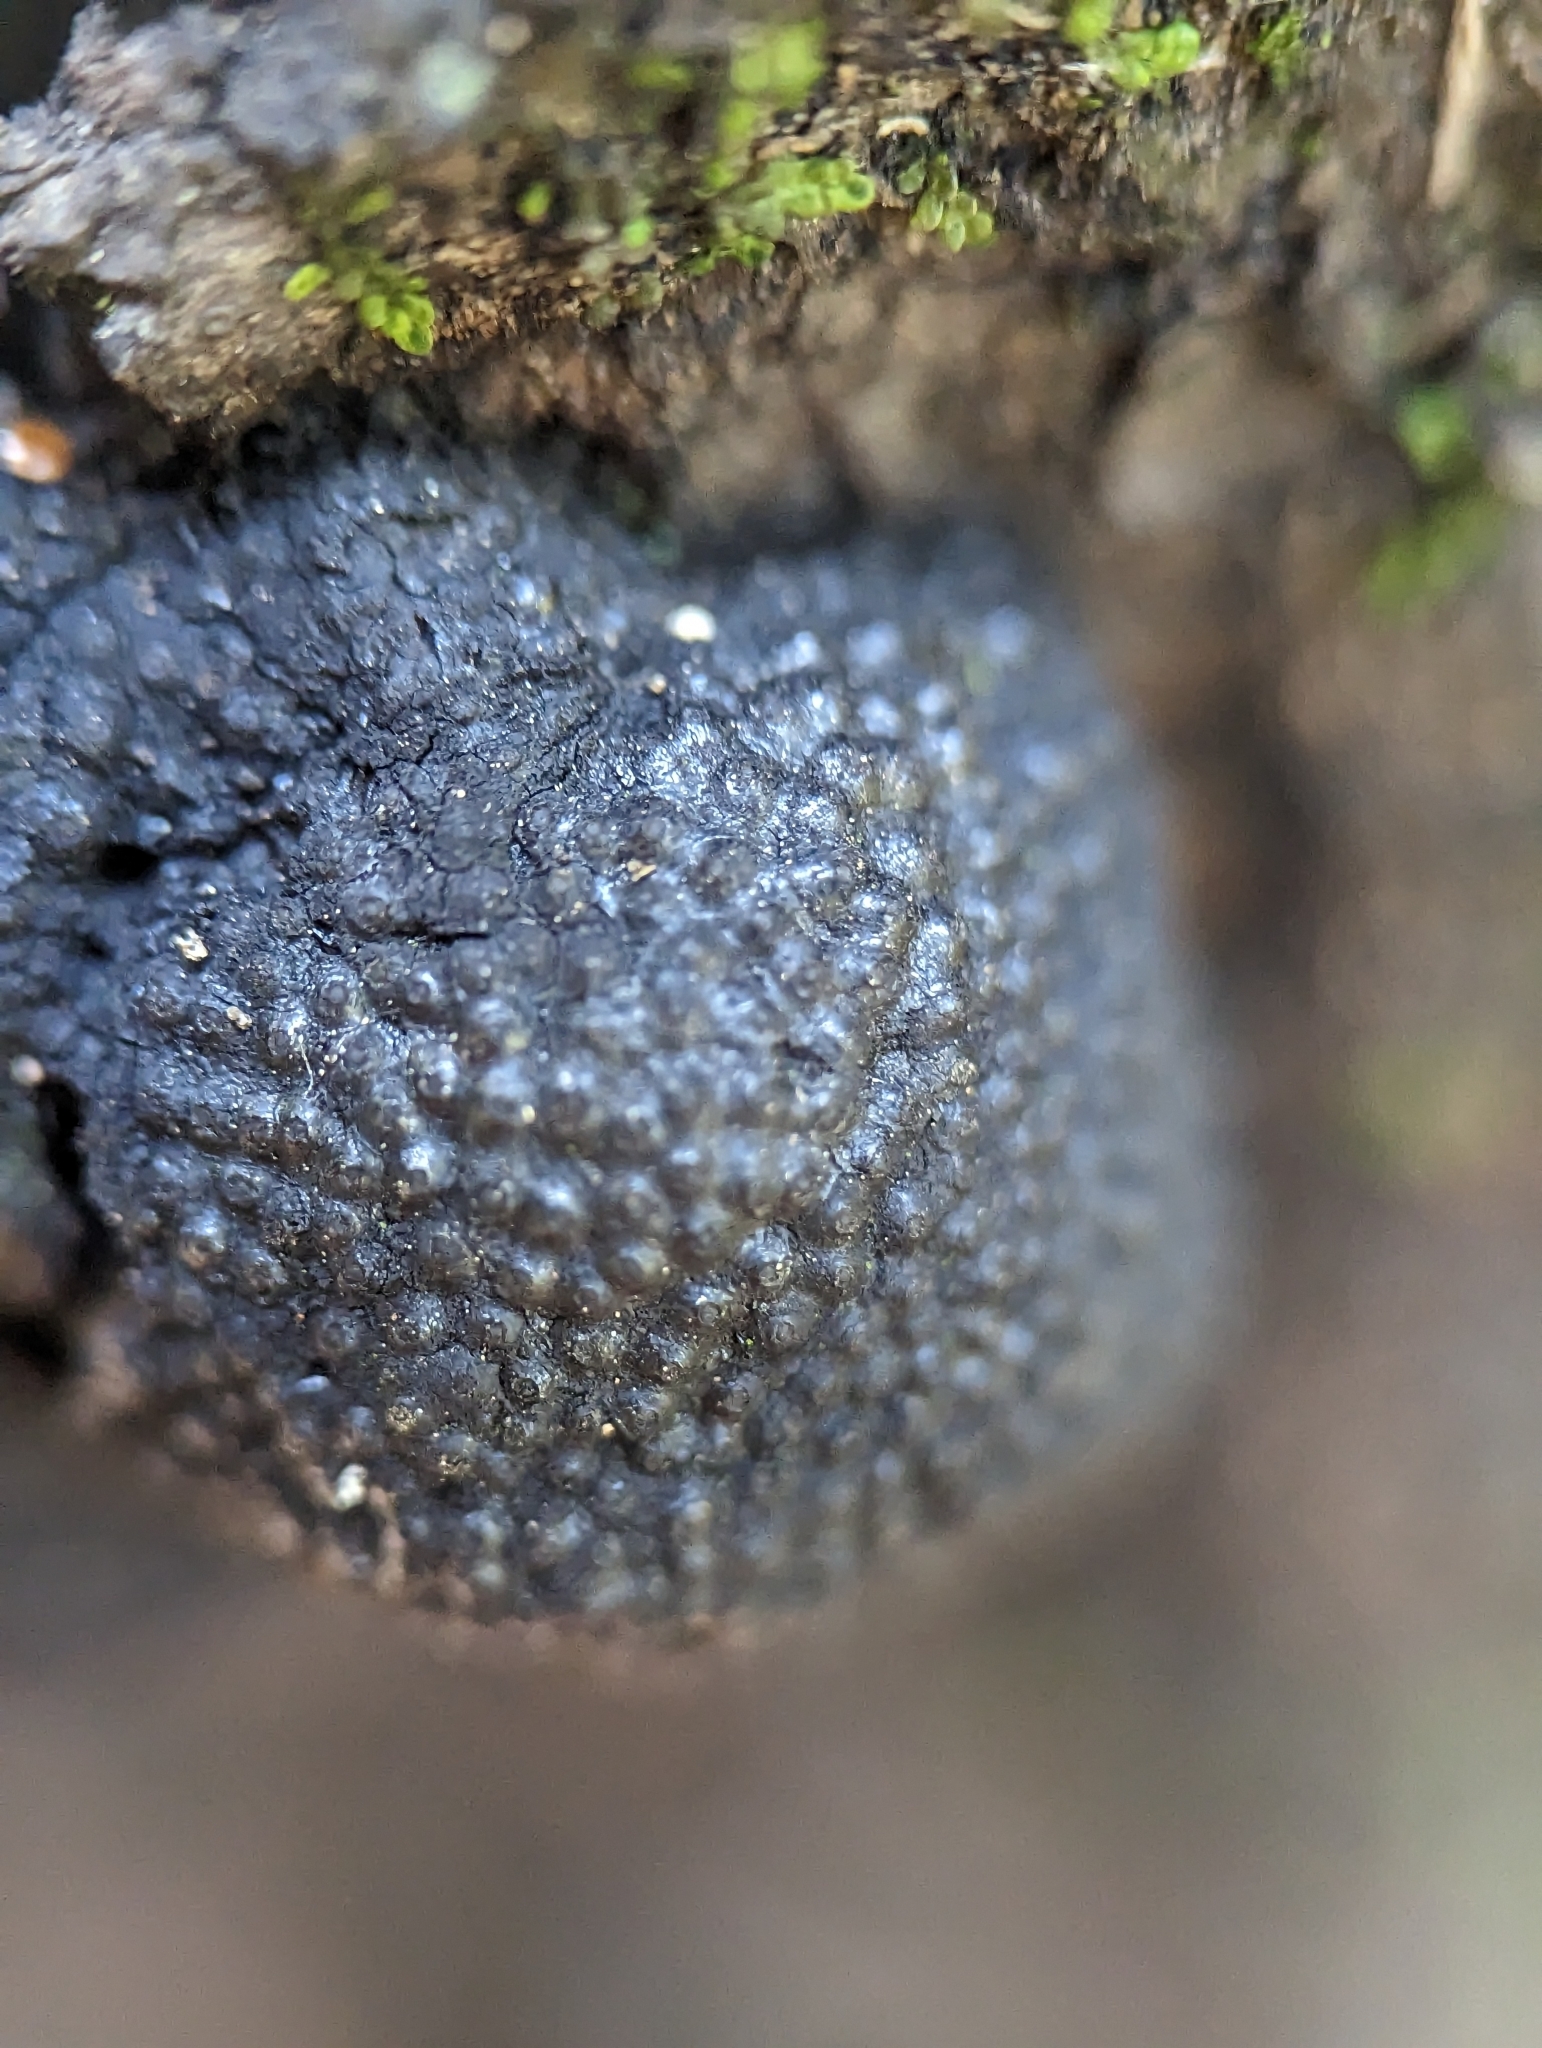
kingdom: Fungi
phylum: Ascomycota
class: Sordariomycetes
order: Xylariales
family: Hypoxylaceae
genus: Annulohypoxylon
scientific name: Annulohypoxylon thouarsianum
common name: Cramp balls
